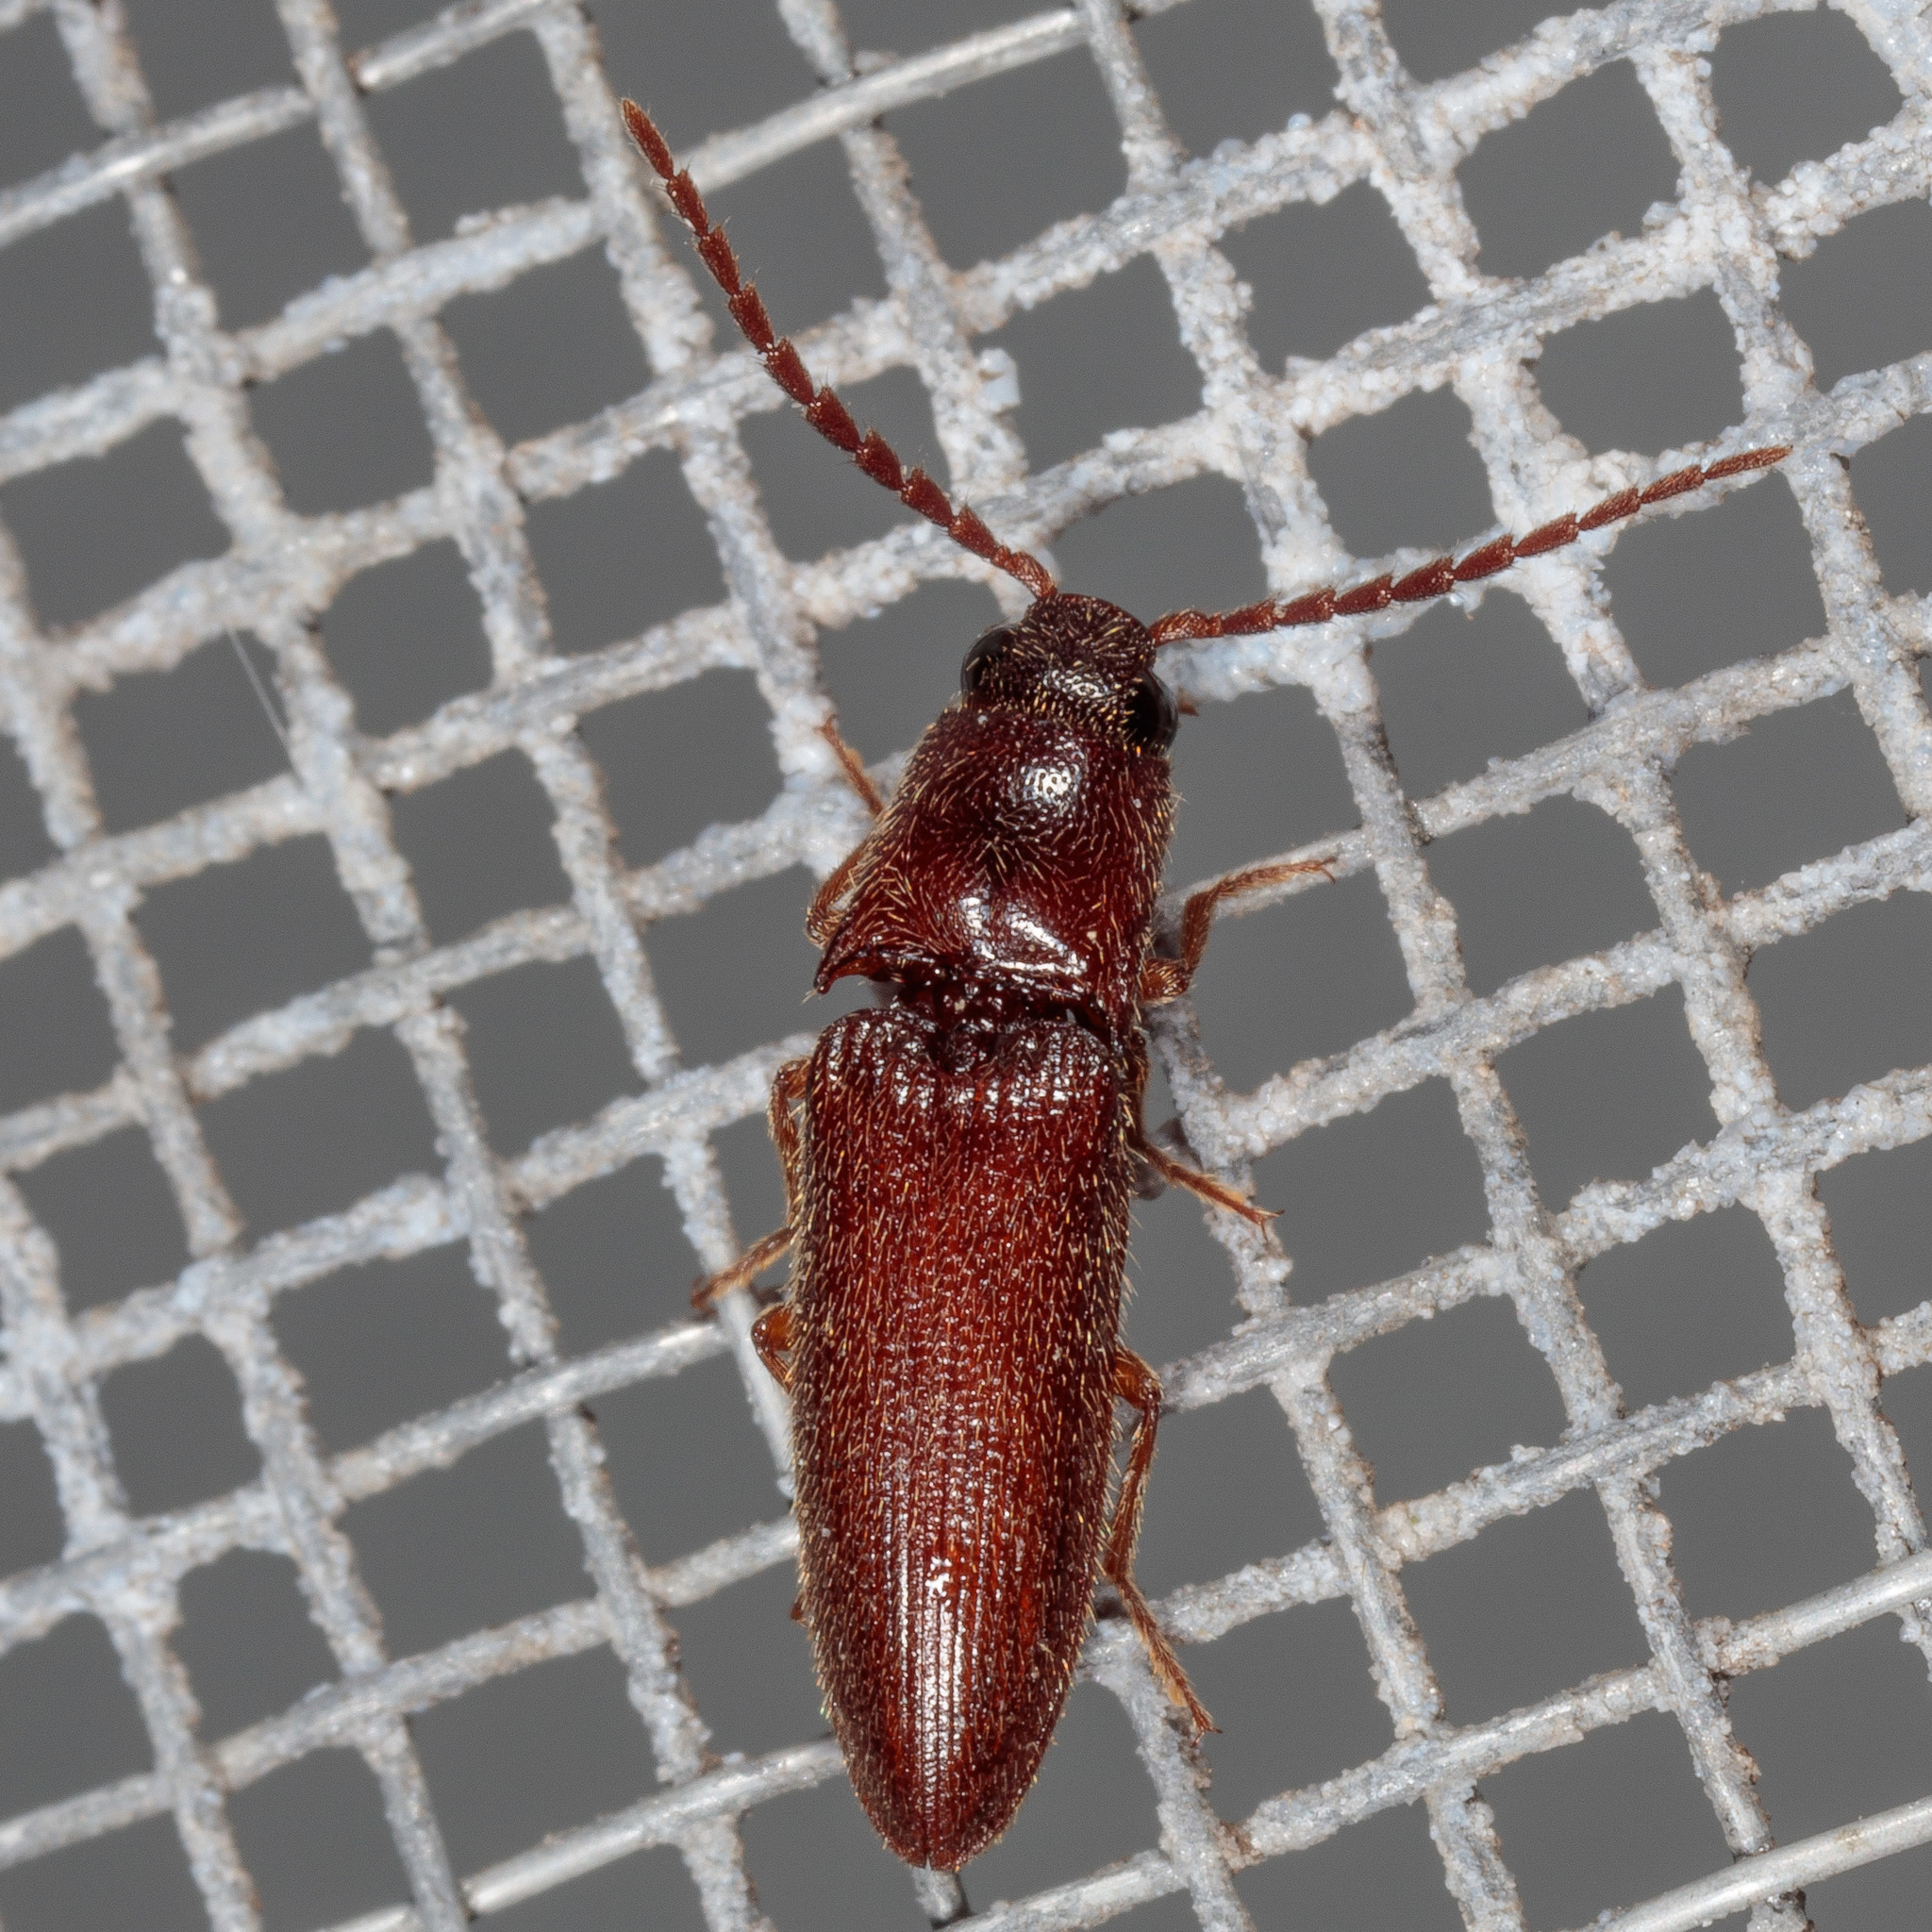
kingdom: Animalia
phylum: Arthropoda
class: Insecta
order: Coleoptera
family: Elateridae
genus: Dipropus
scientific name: Dipropus
